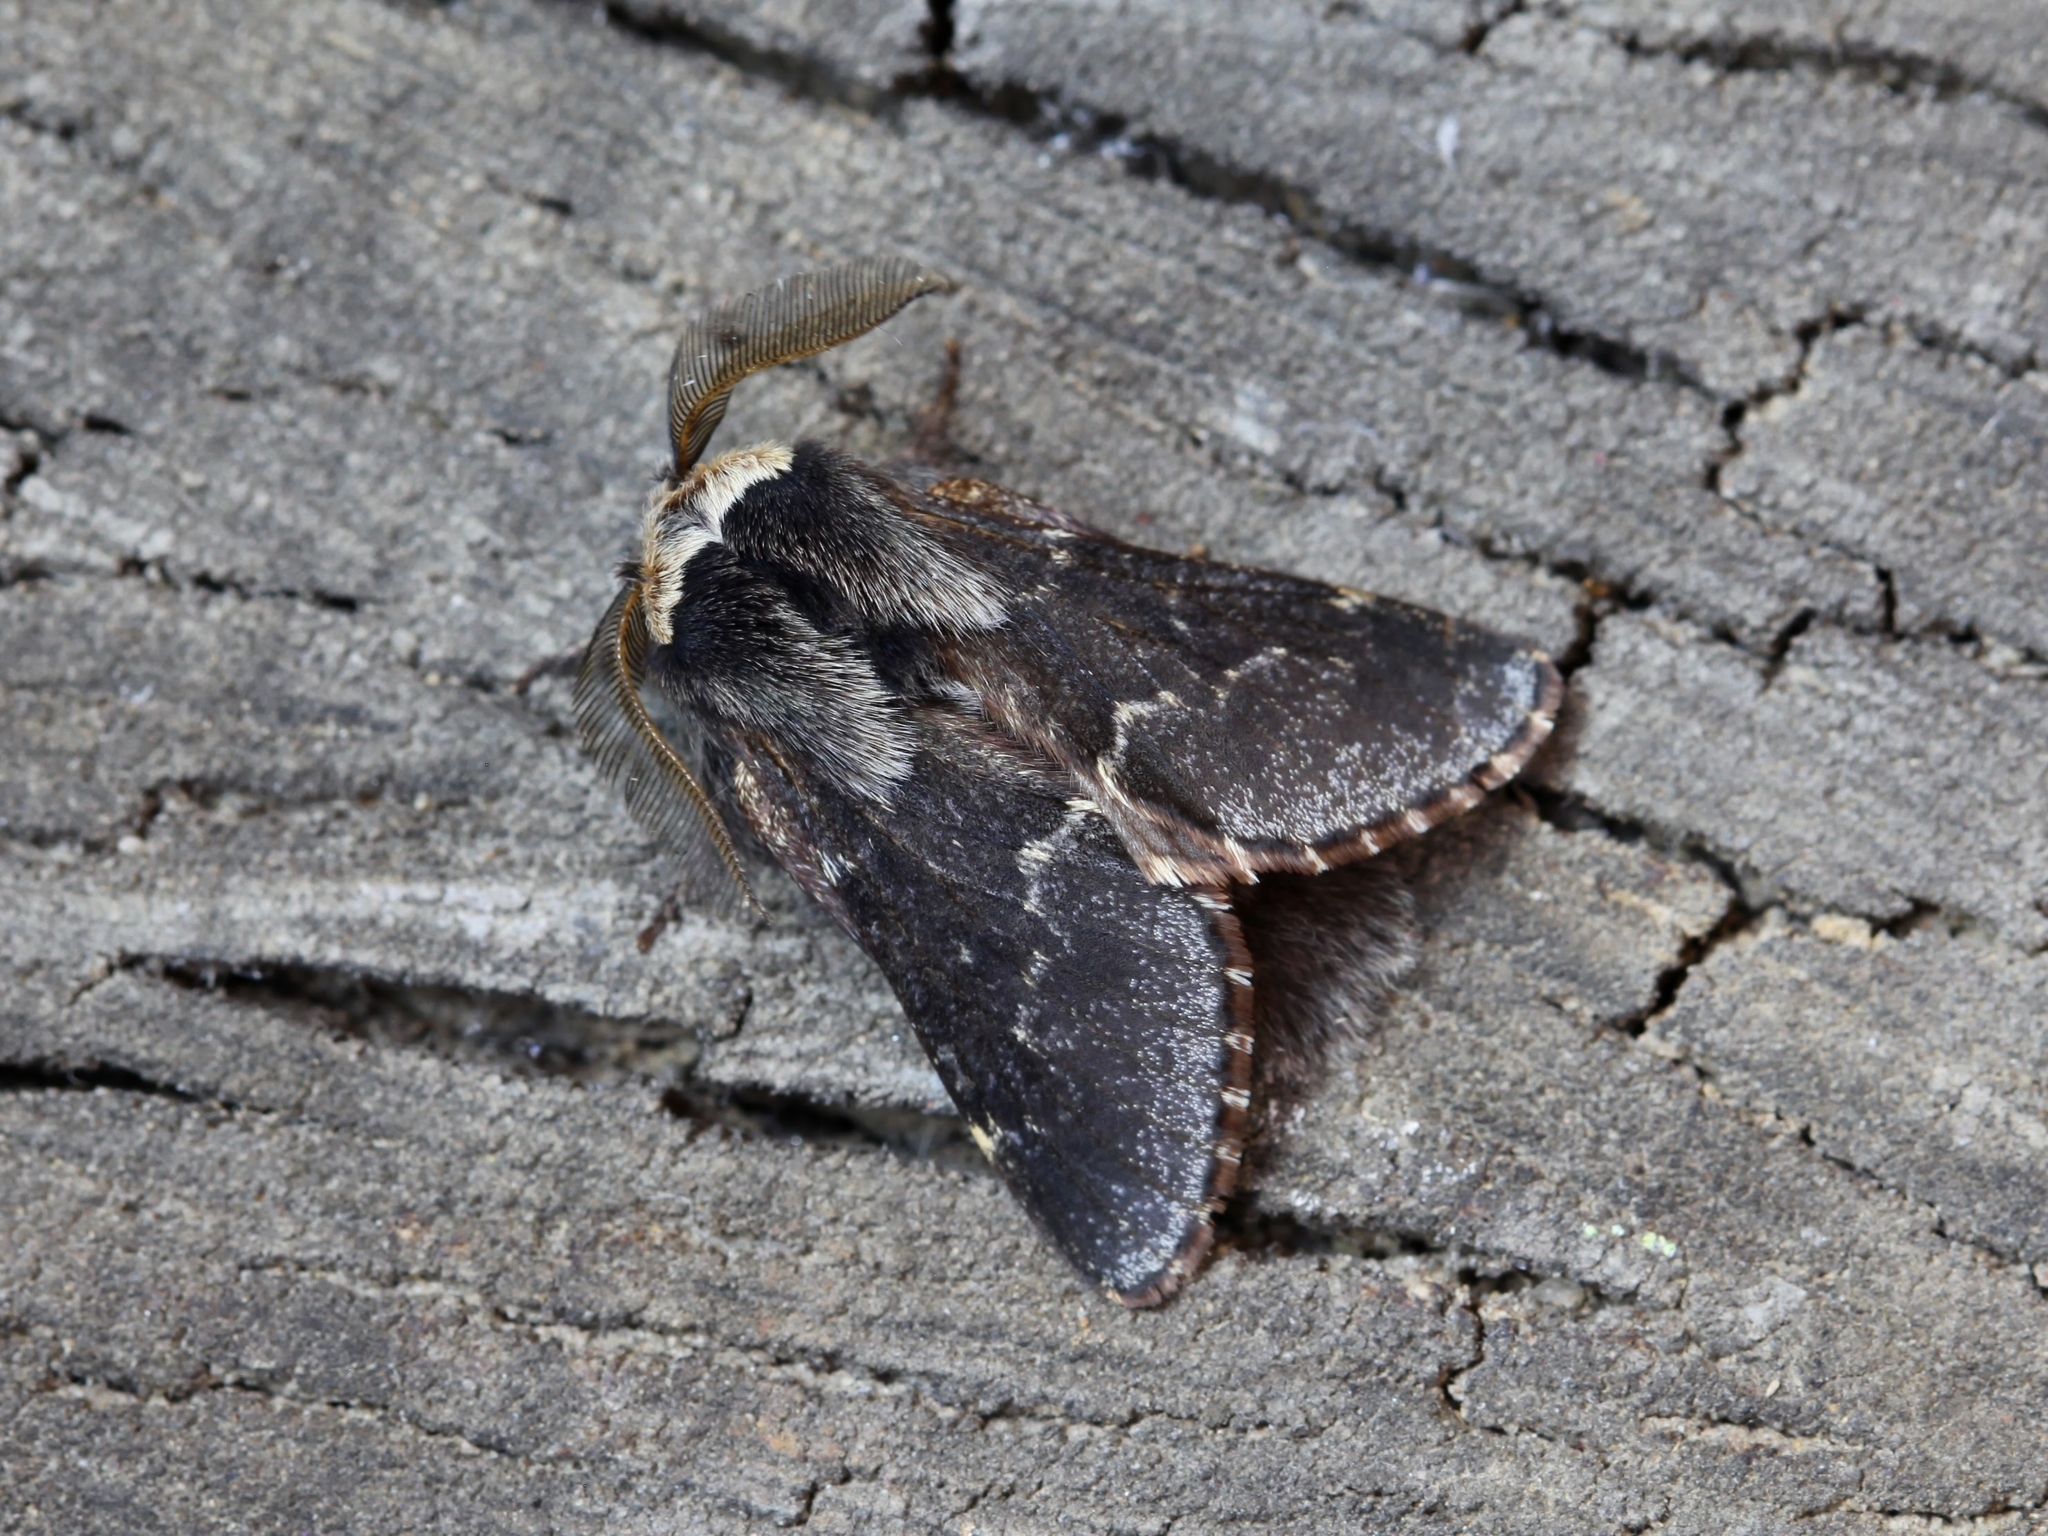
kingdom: Animalia
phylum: Arthropoda
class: Insecta
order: Lepidoptera
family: Lasiocampidae
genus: Poecilocampa
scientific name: Poecilocampa populi
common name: December moth
